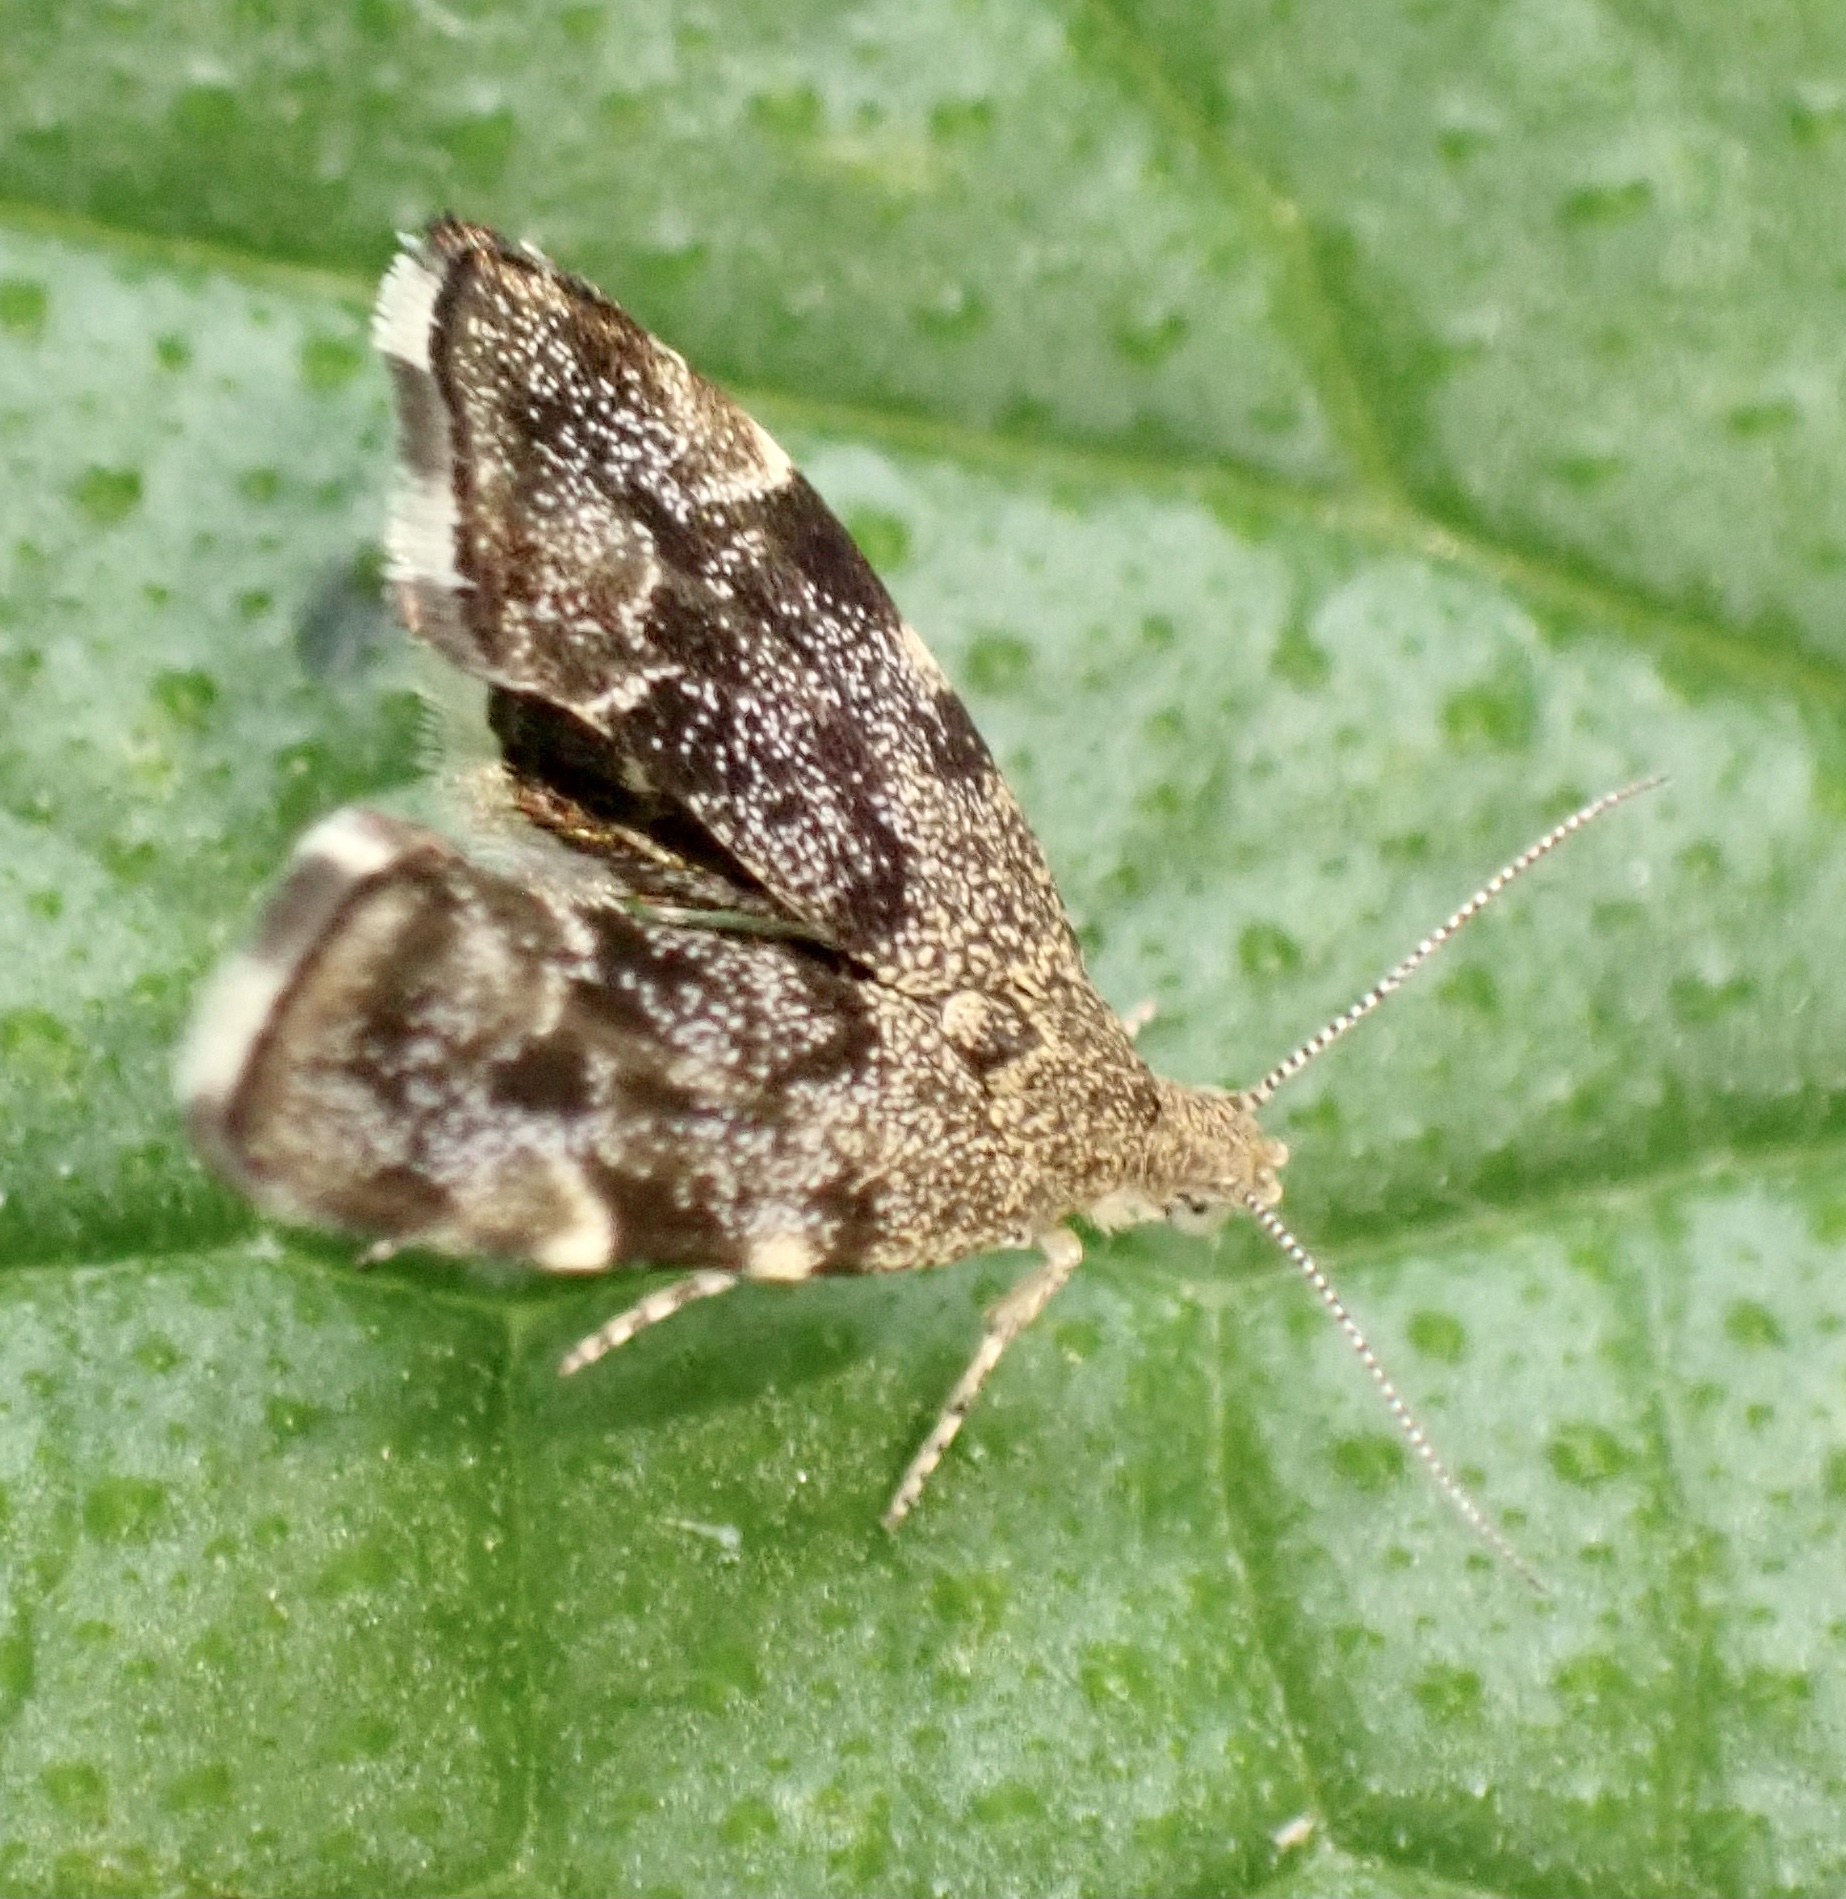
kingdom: Animalia
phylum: Arthropoda
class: Insecta
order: Lepidoptera
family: Choreutidae
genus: Anthophila
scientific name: Anthophila fabriciana
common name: Nettle-tap
